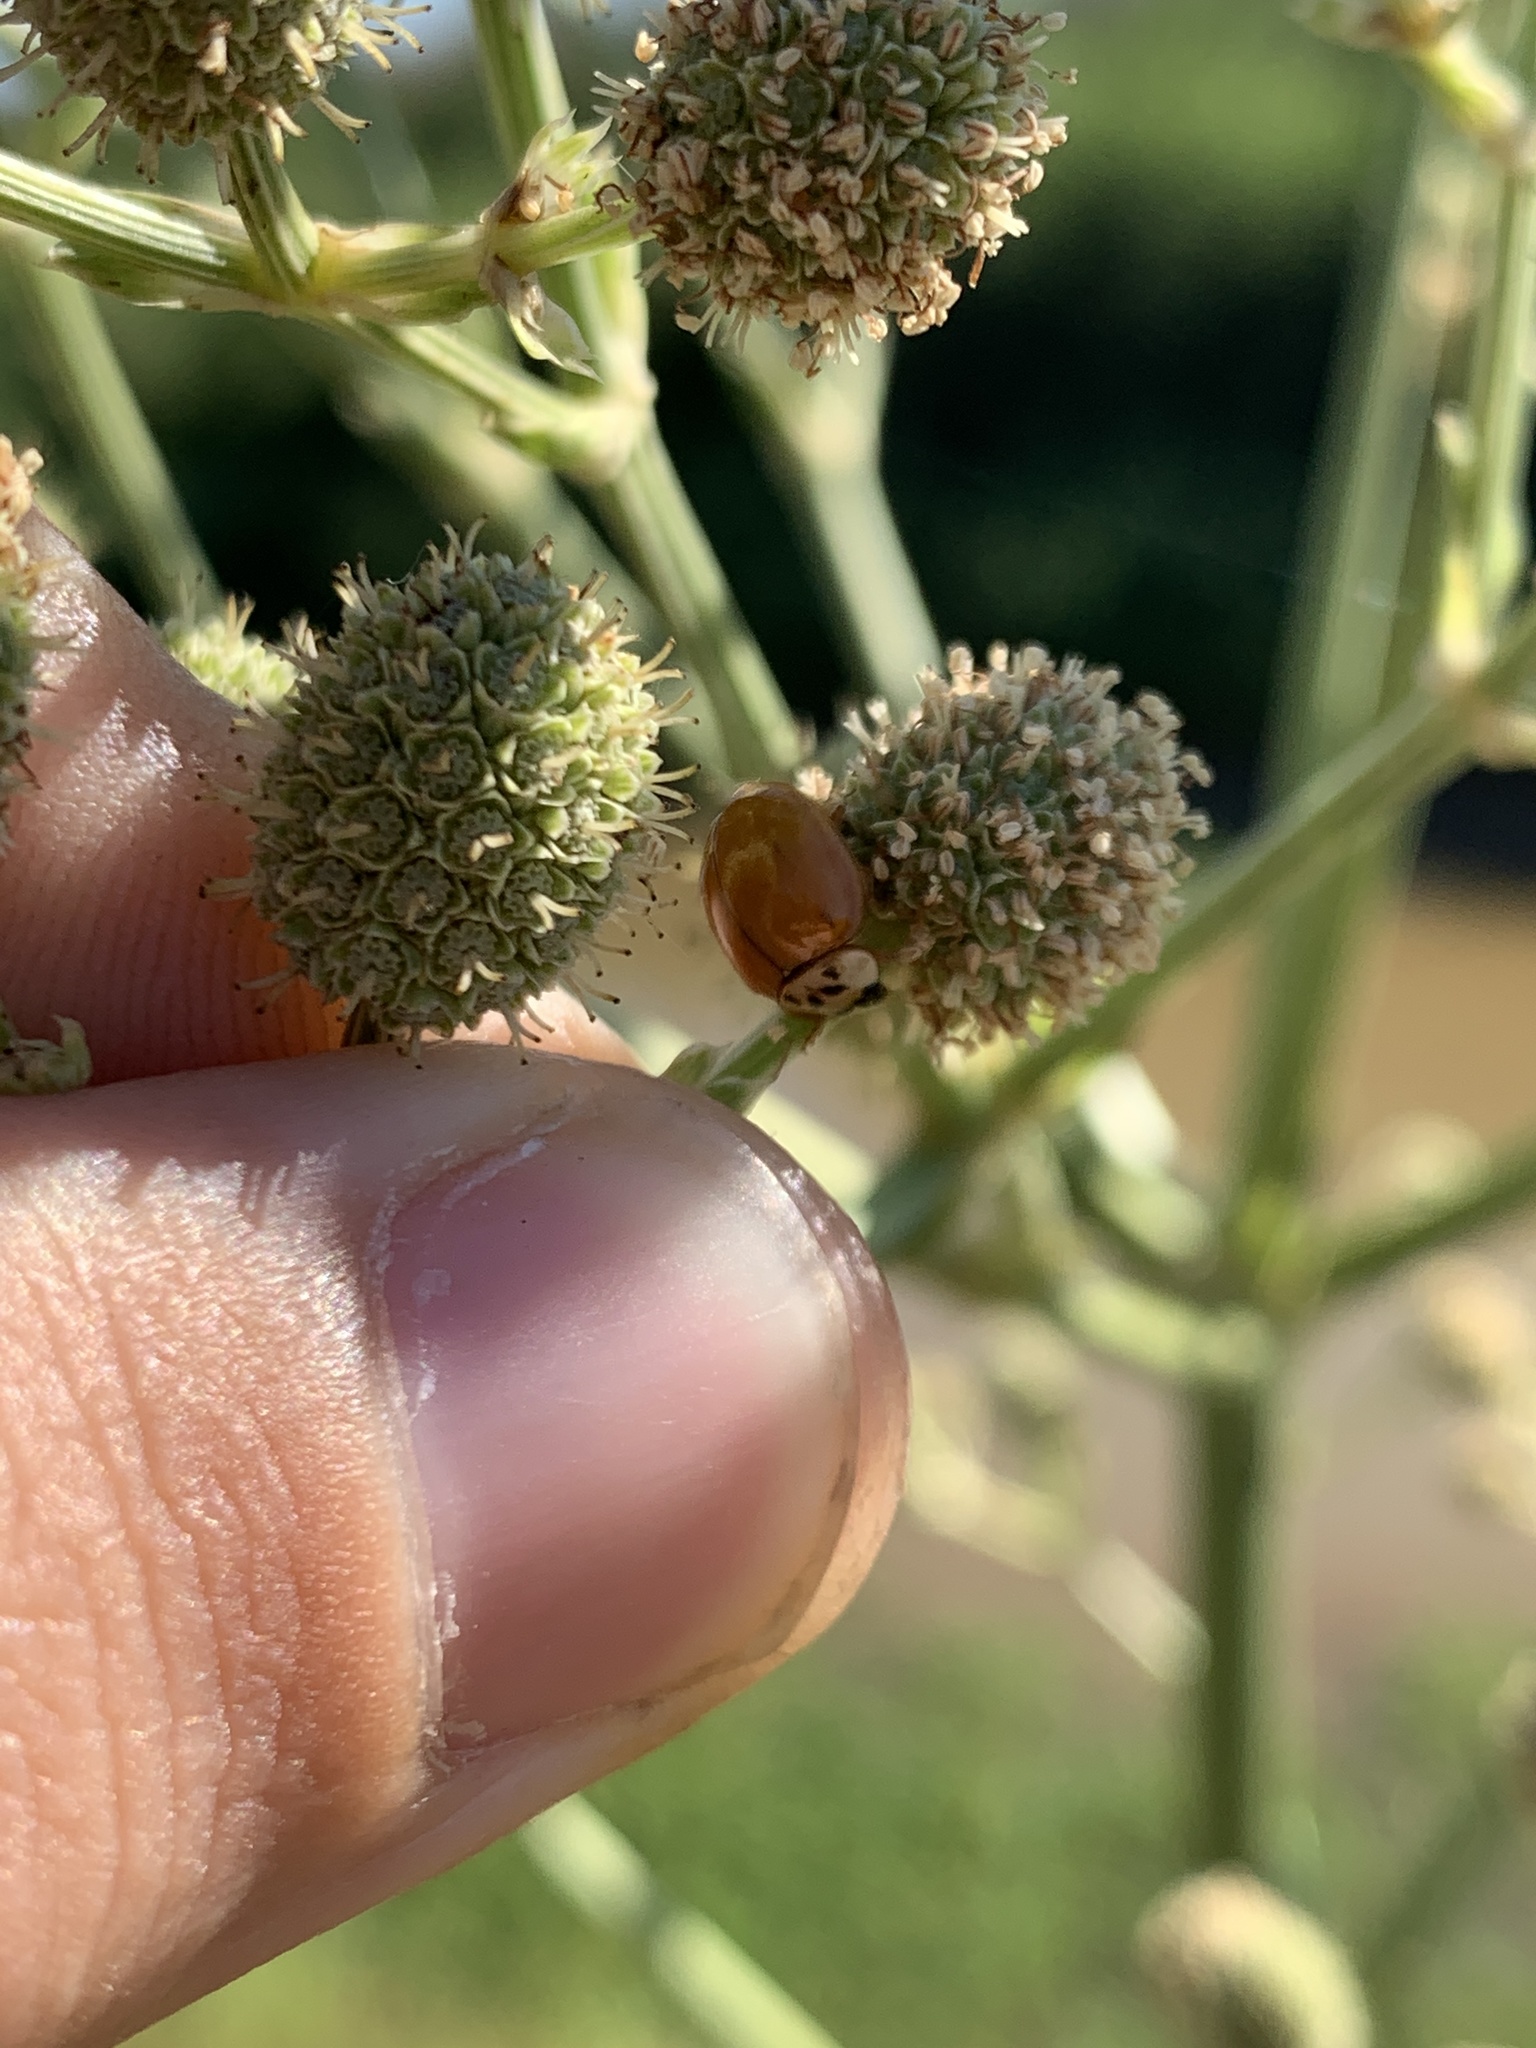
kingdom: Animalia
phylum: Arthropoda
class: Insecta
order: Coleoptera
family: Coccinellidae
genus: Harmonia
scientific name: Harmonia axyridis
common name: Harlequin ladybird
